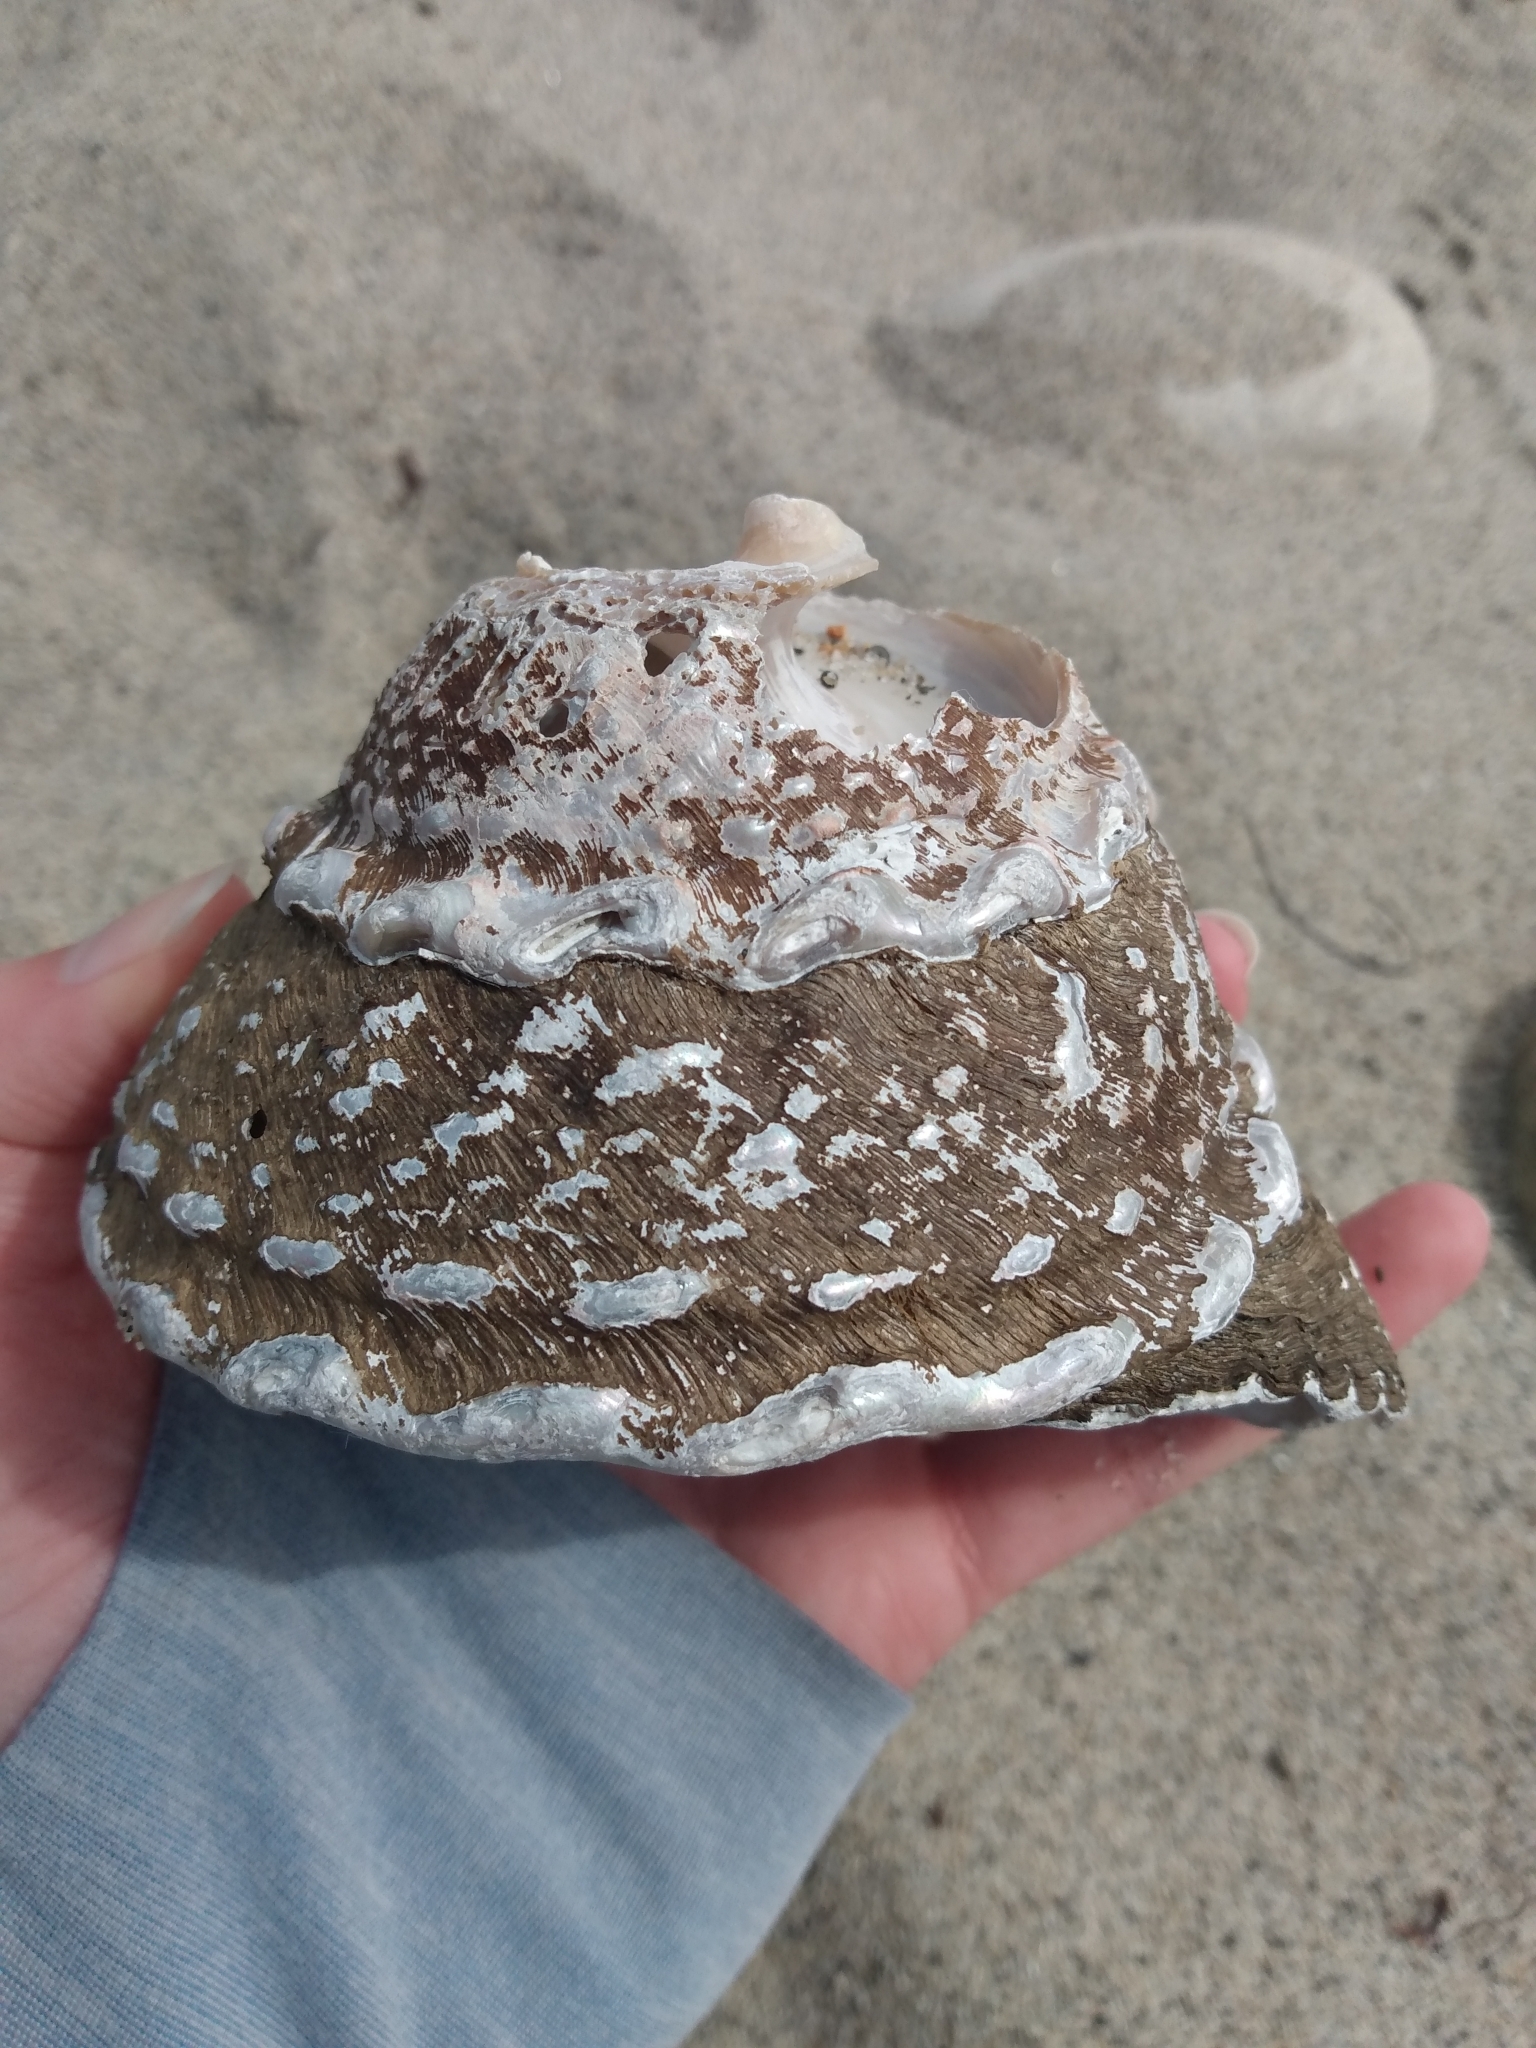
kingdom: Animalia
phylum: Mollusca
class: Gastropoda
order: Trochida
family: Turbinidae
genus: Megastraea
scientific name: Megastraea undosa
